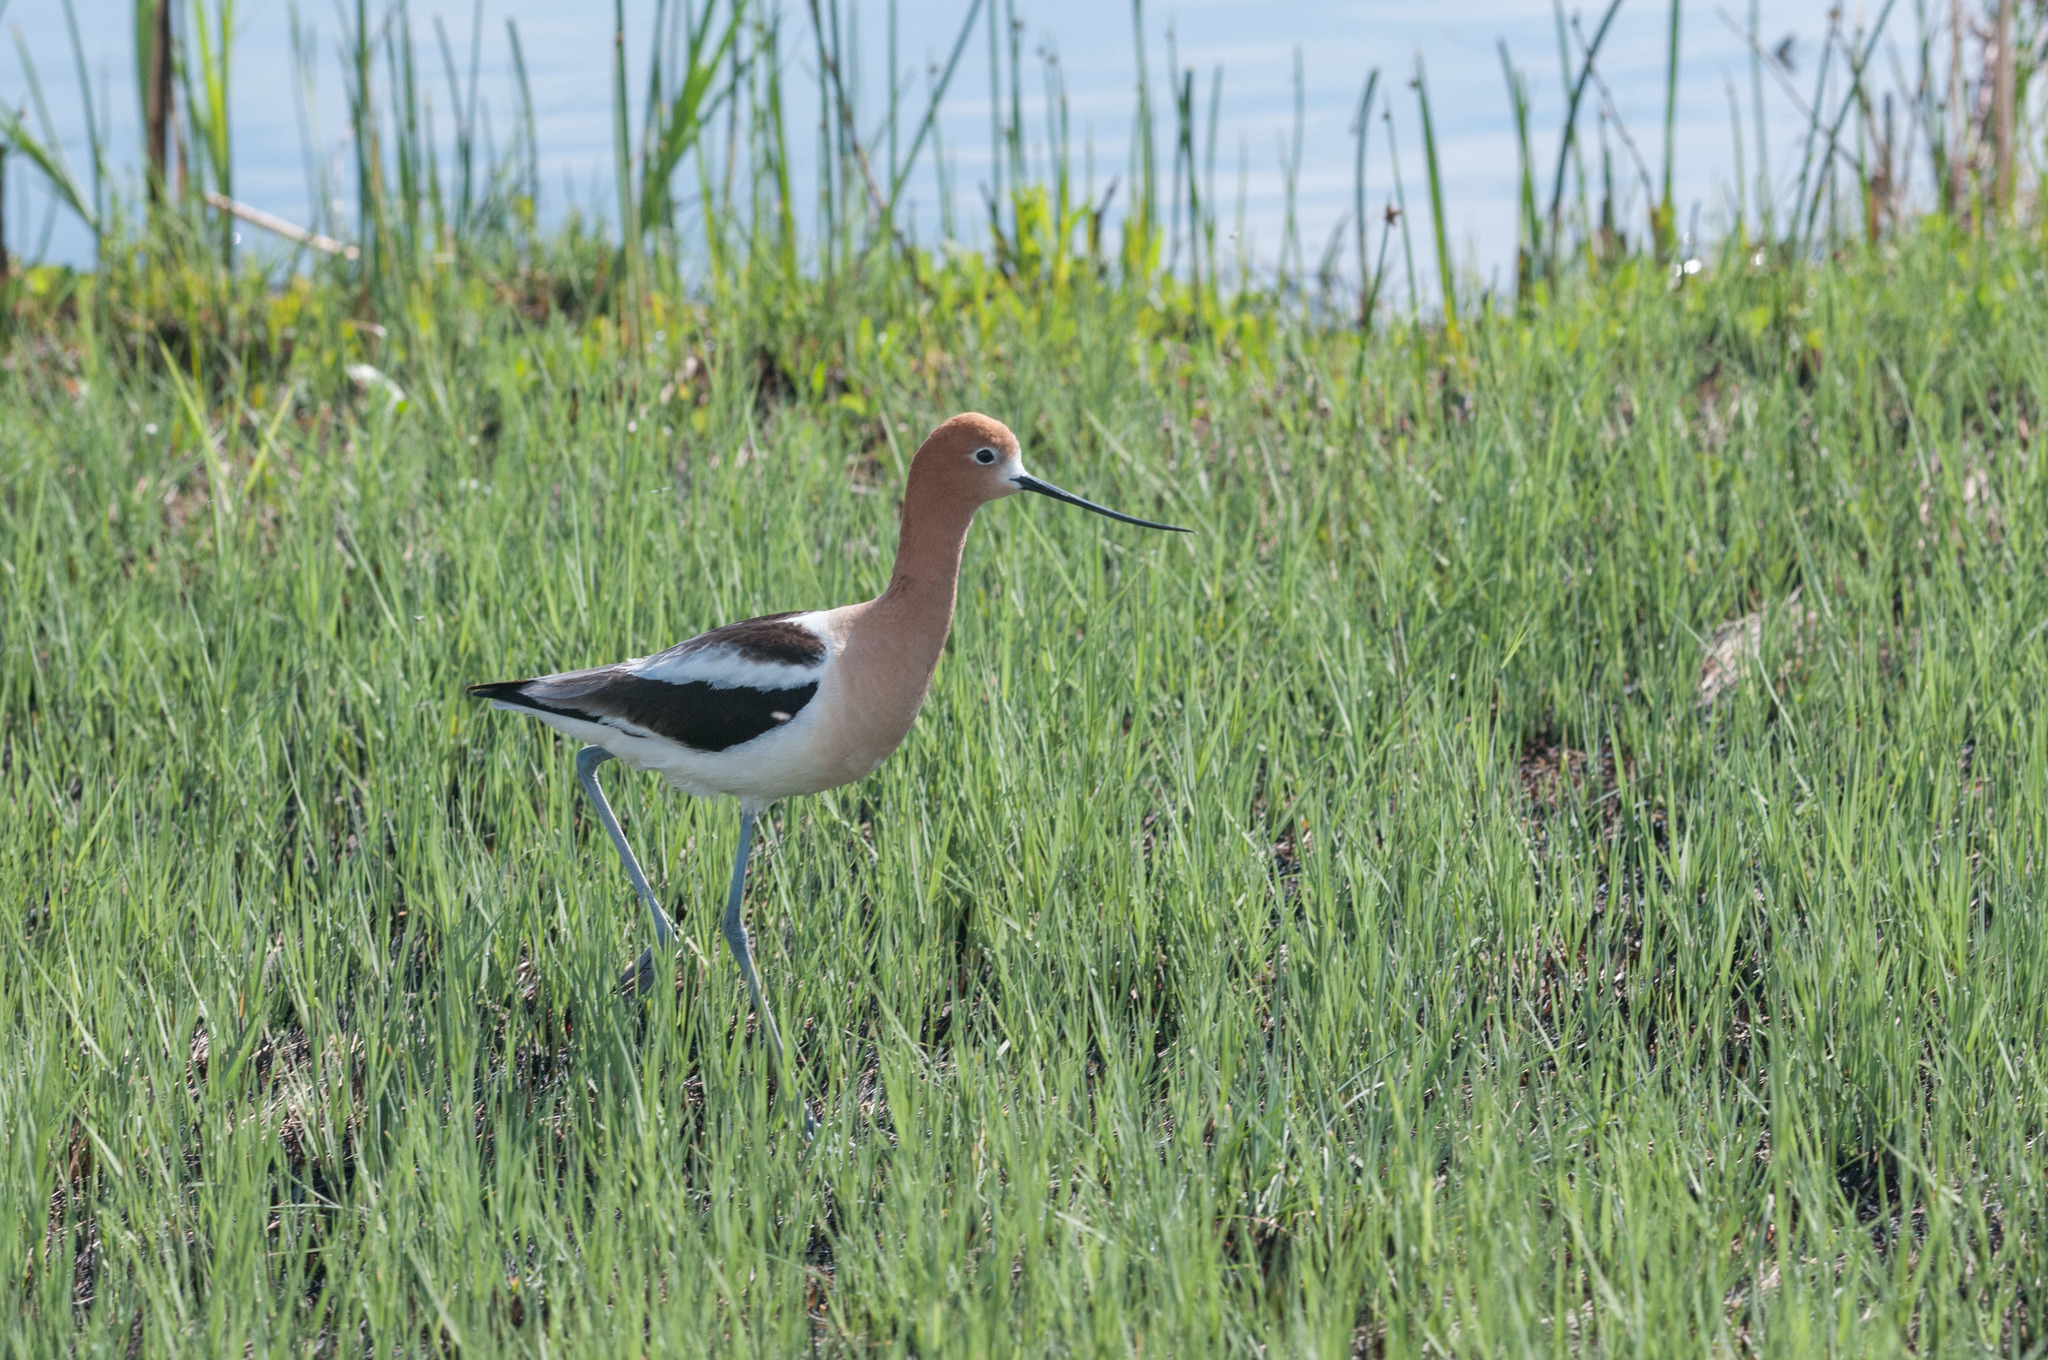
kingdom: Animalia
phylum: Chordata
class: Aves
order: Charadriiformes
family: Recurvirostridae
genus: Recurvirostra
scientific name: Recurvirostra americana
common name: American avocet
